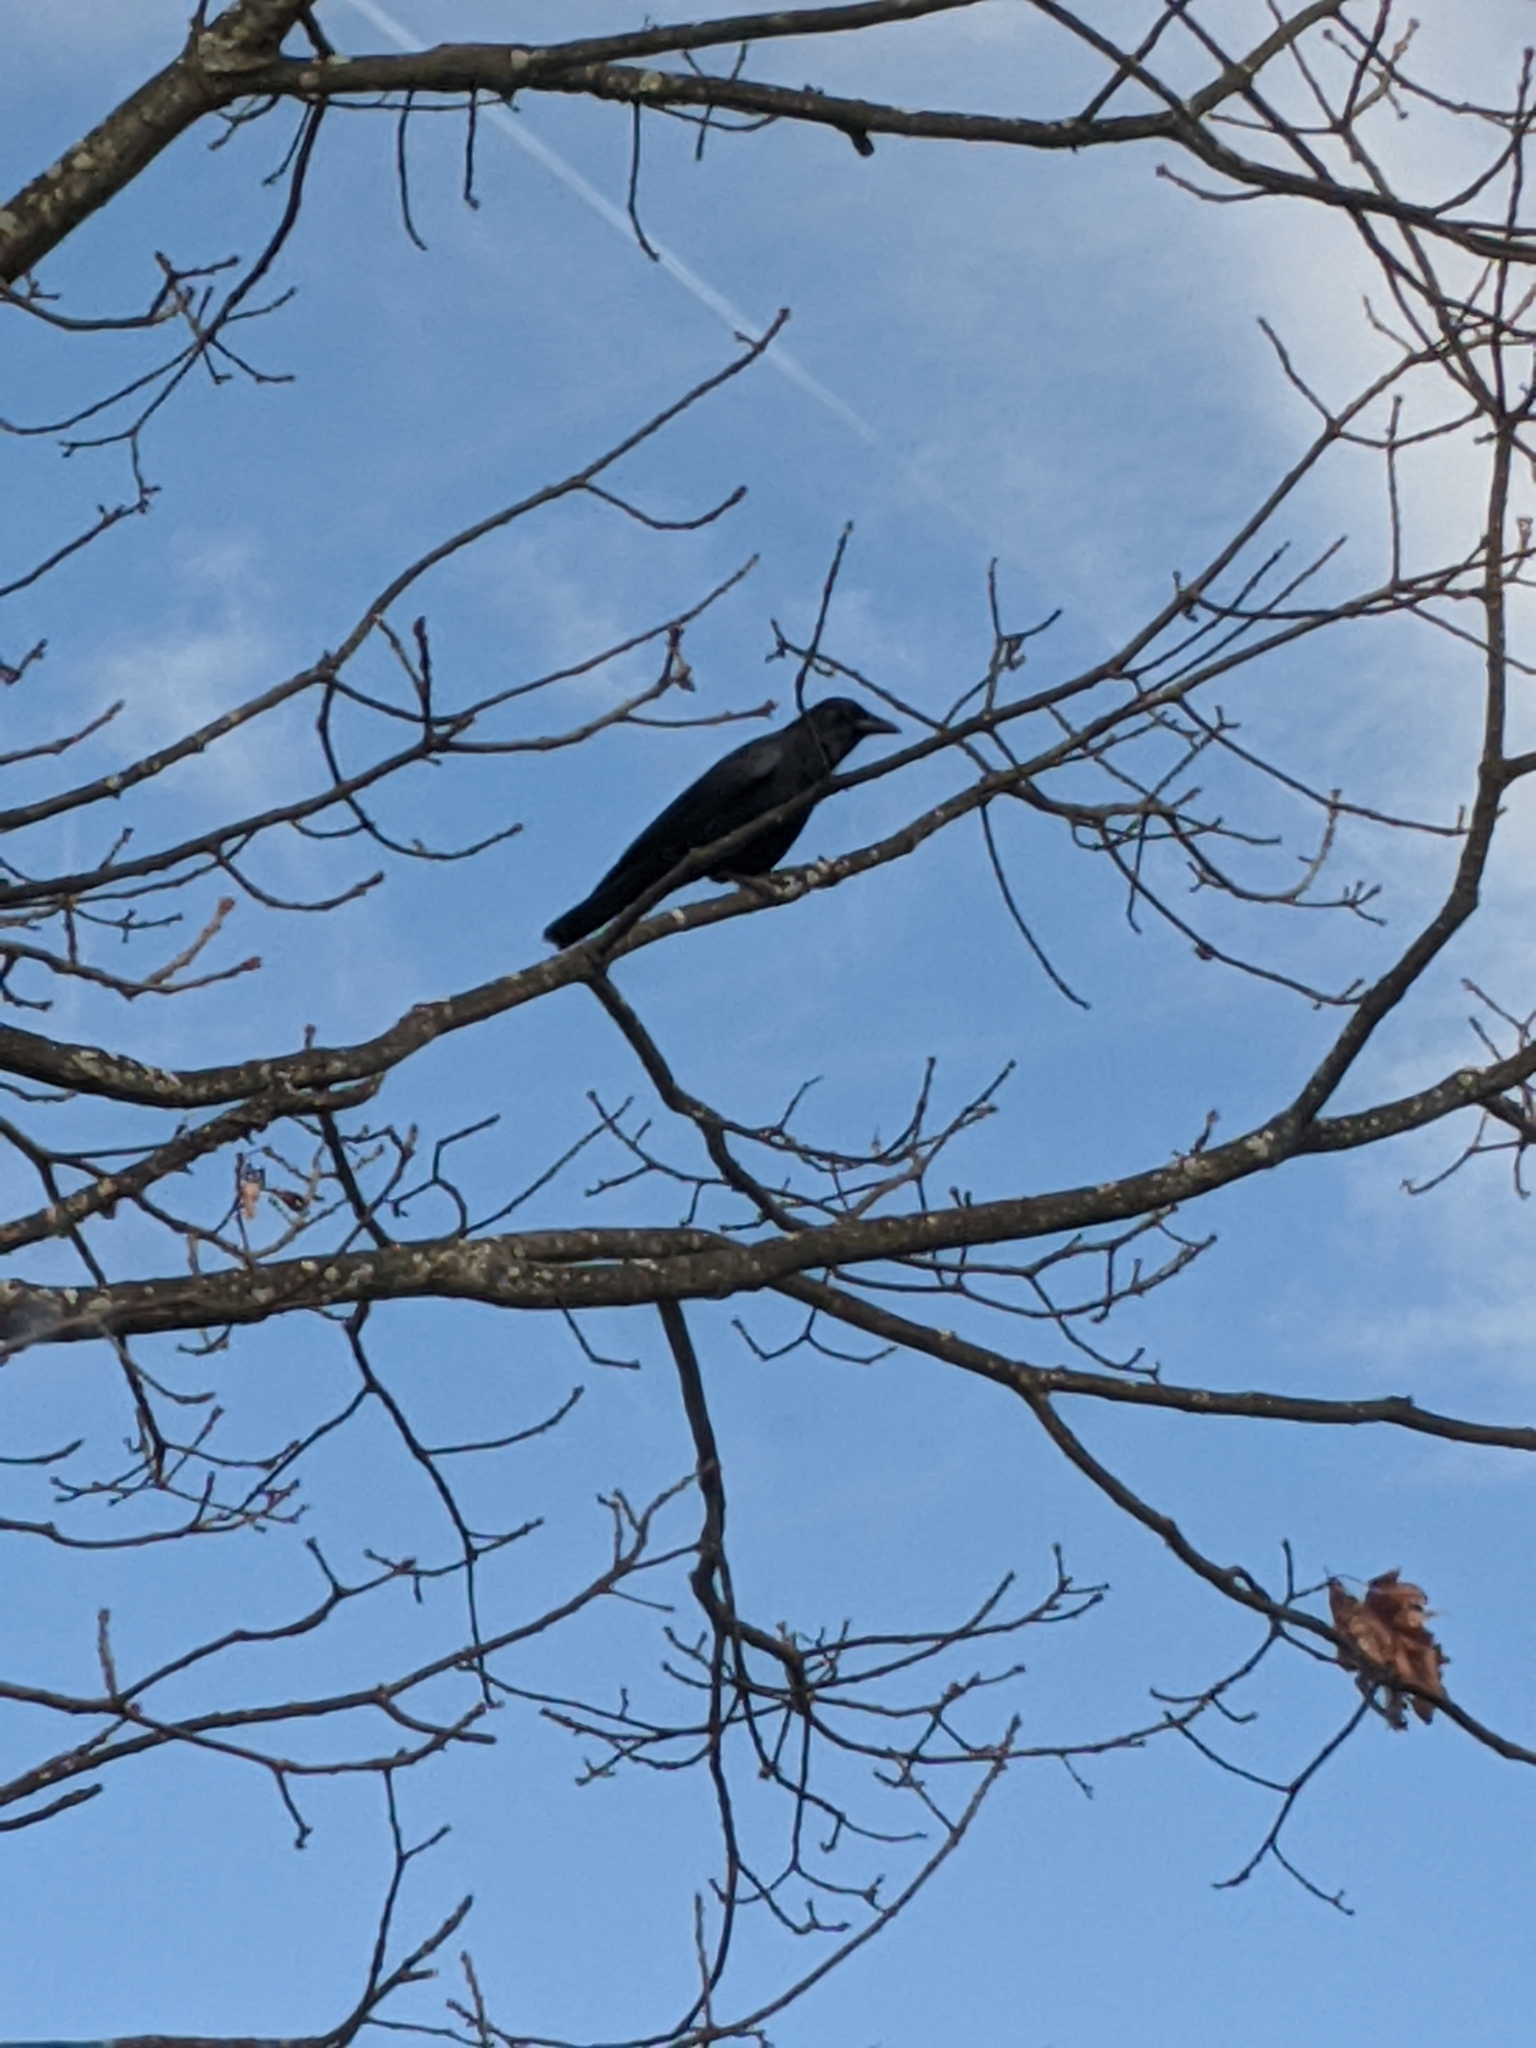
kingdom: Animalia
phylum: Chordata
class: Aves
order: Passeriformes
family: Corvidae
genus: Corvus
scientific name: Corvus brachyrhynchos
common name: American crow
